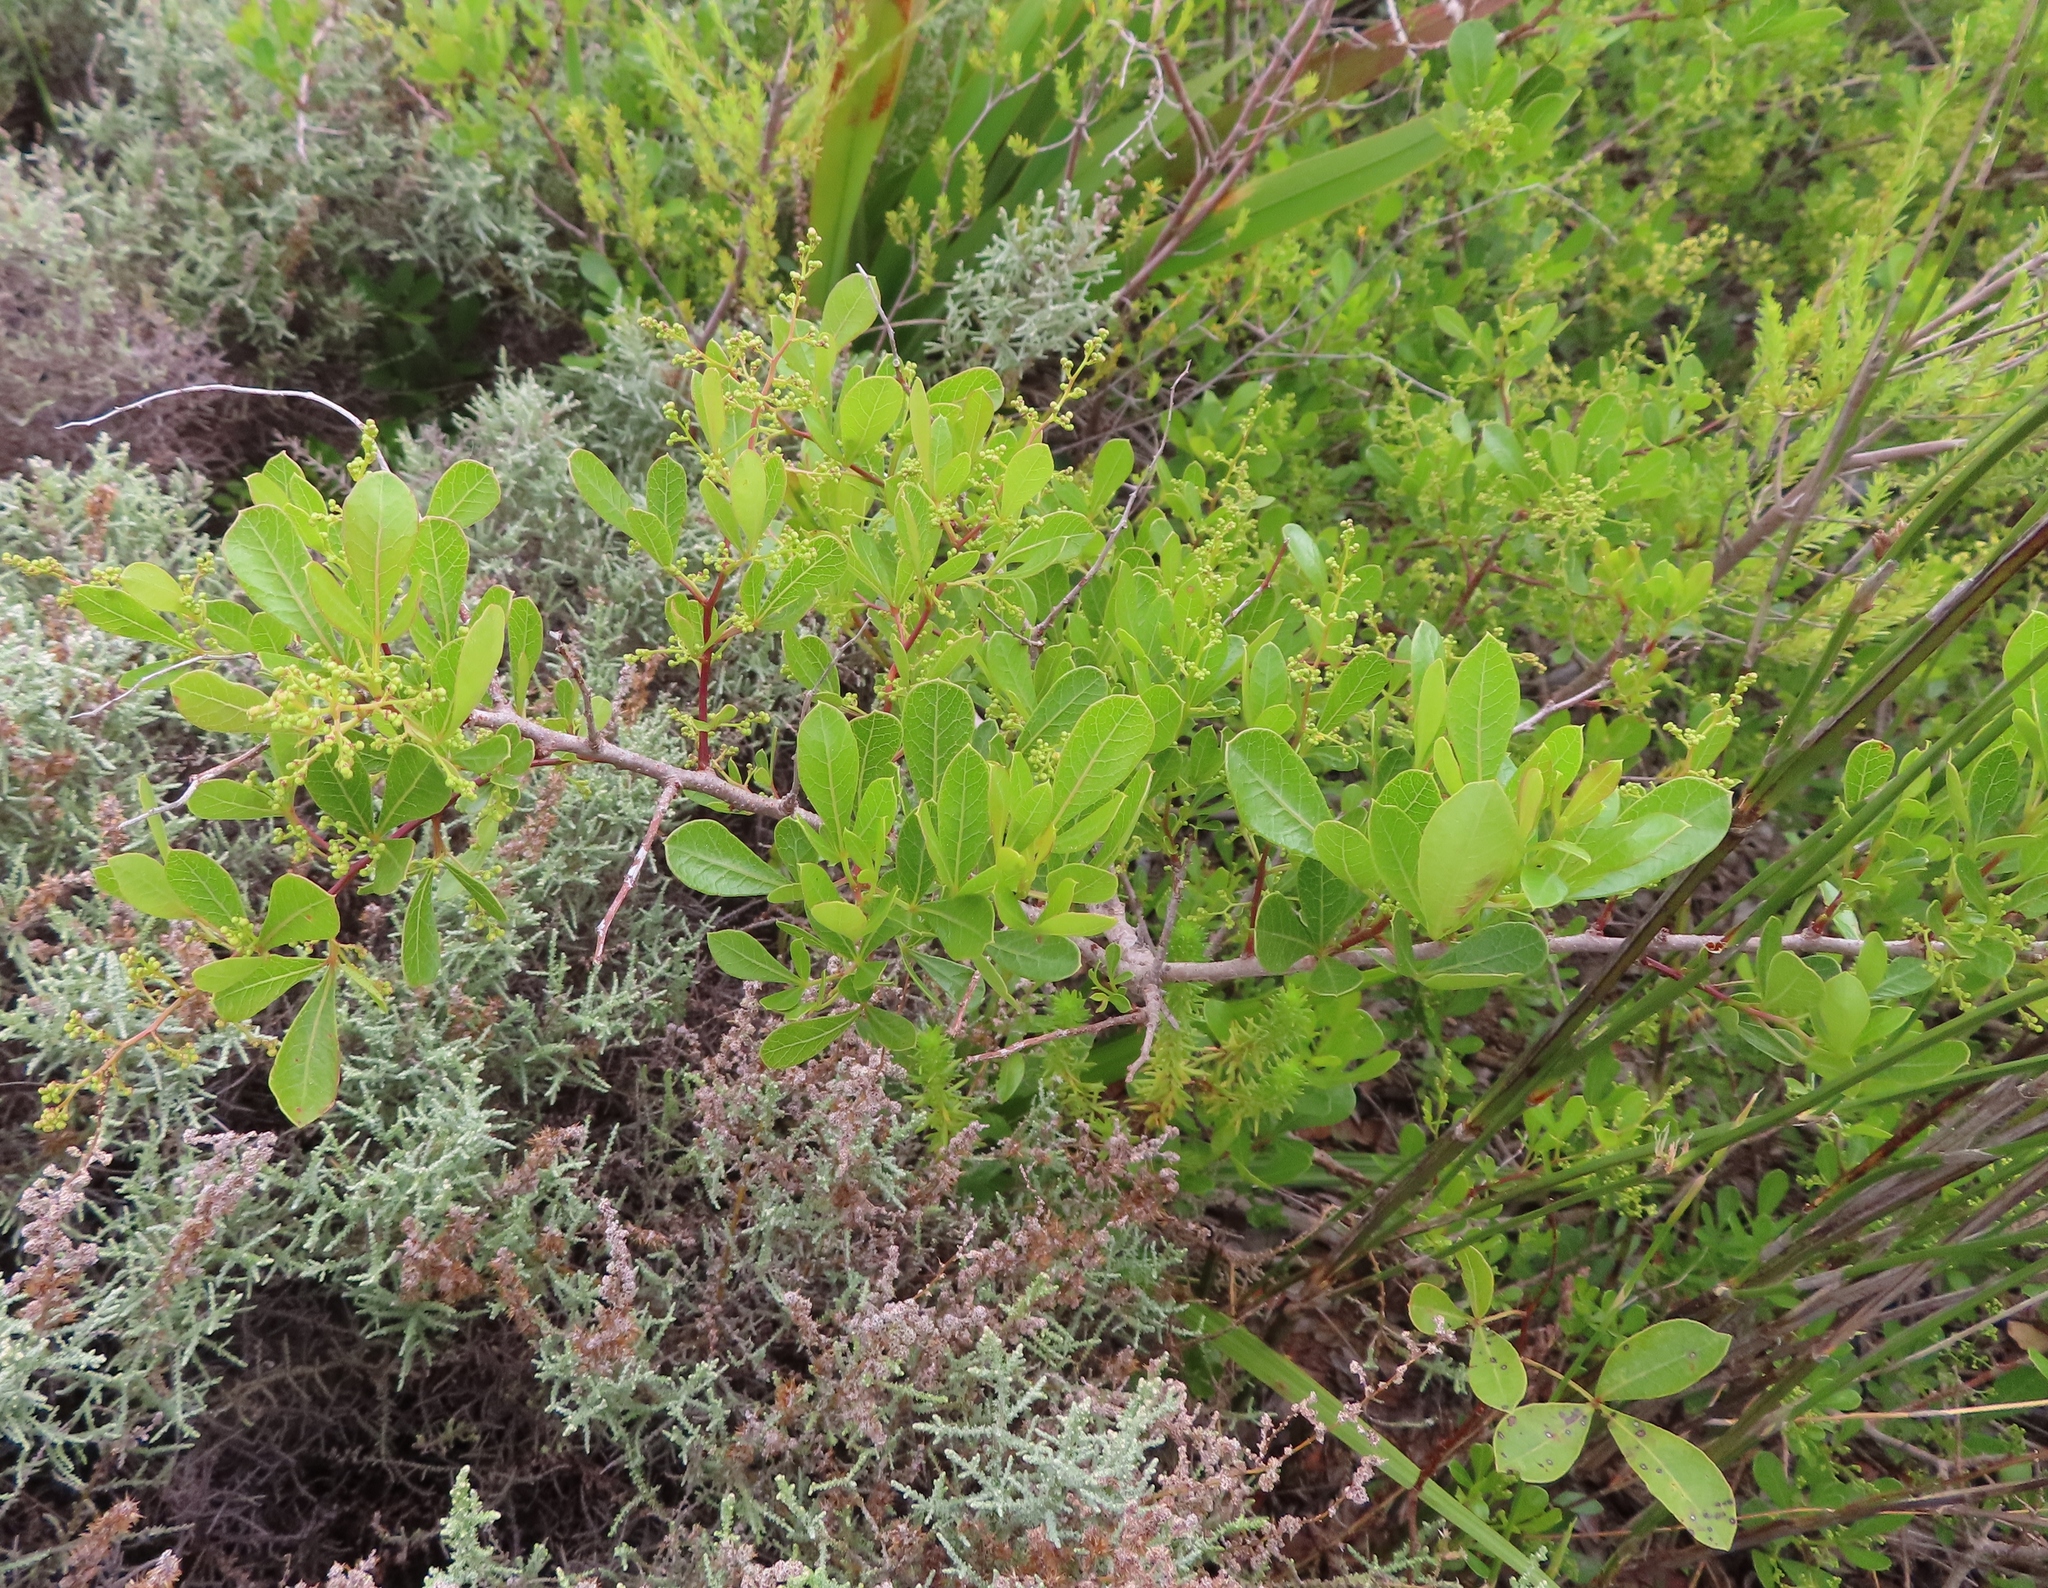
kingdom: Plantae
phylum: Tracheophyta
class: Magnoliopsida
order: Sapindales
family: Anacardiaceae
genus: Searsia
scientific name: Searsia laevigata
